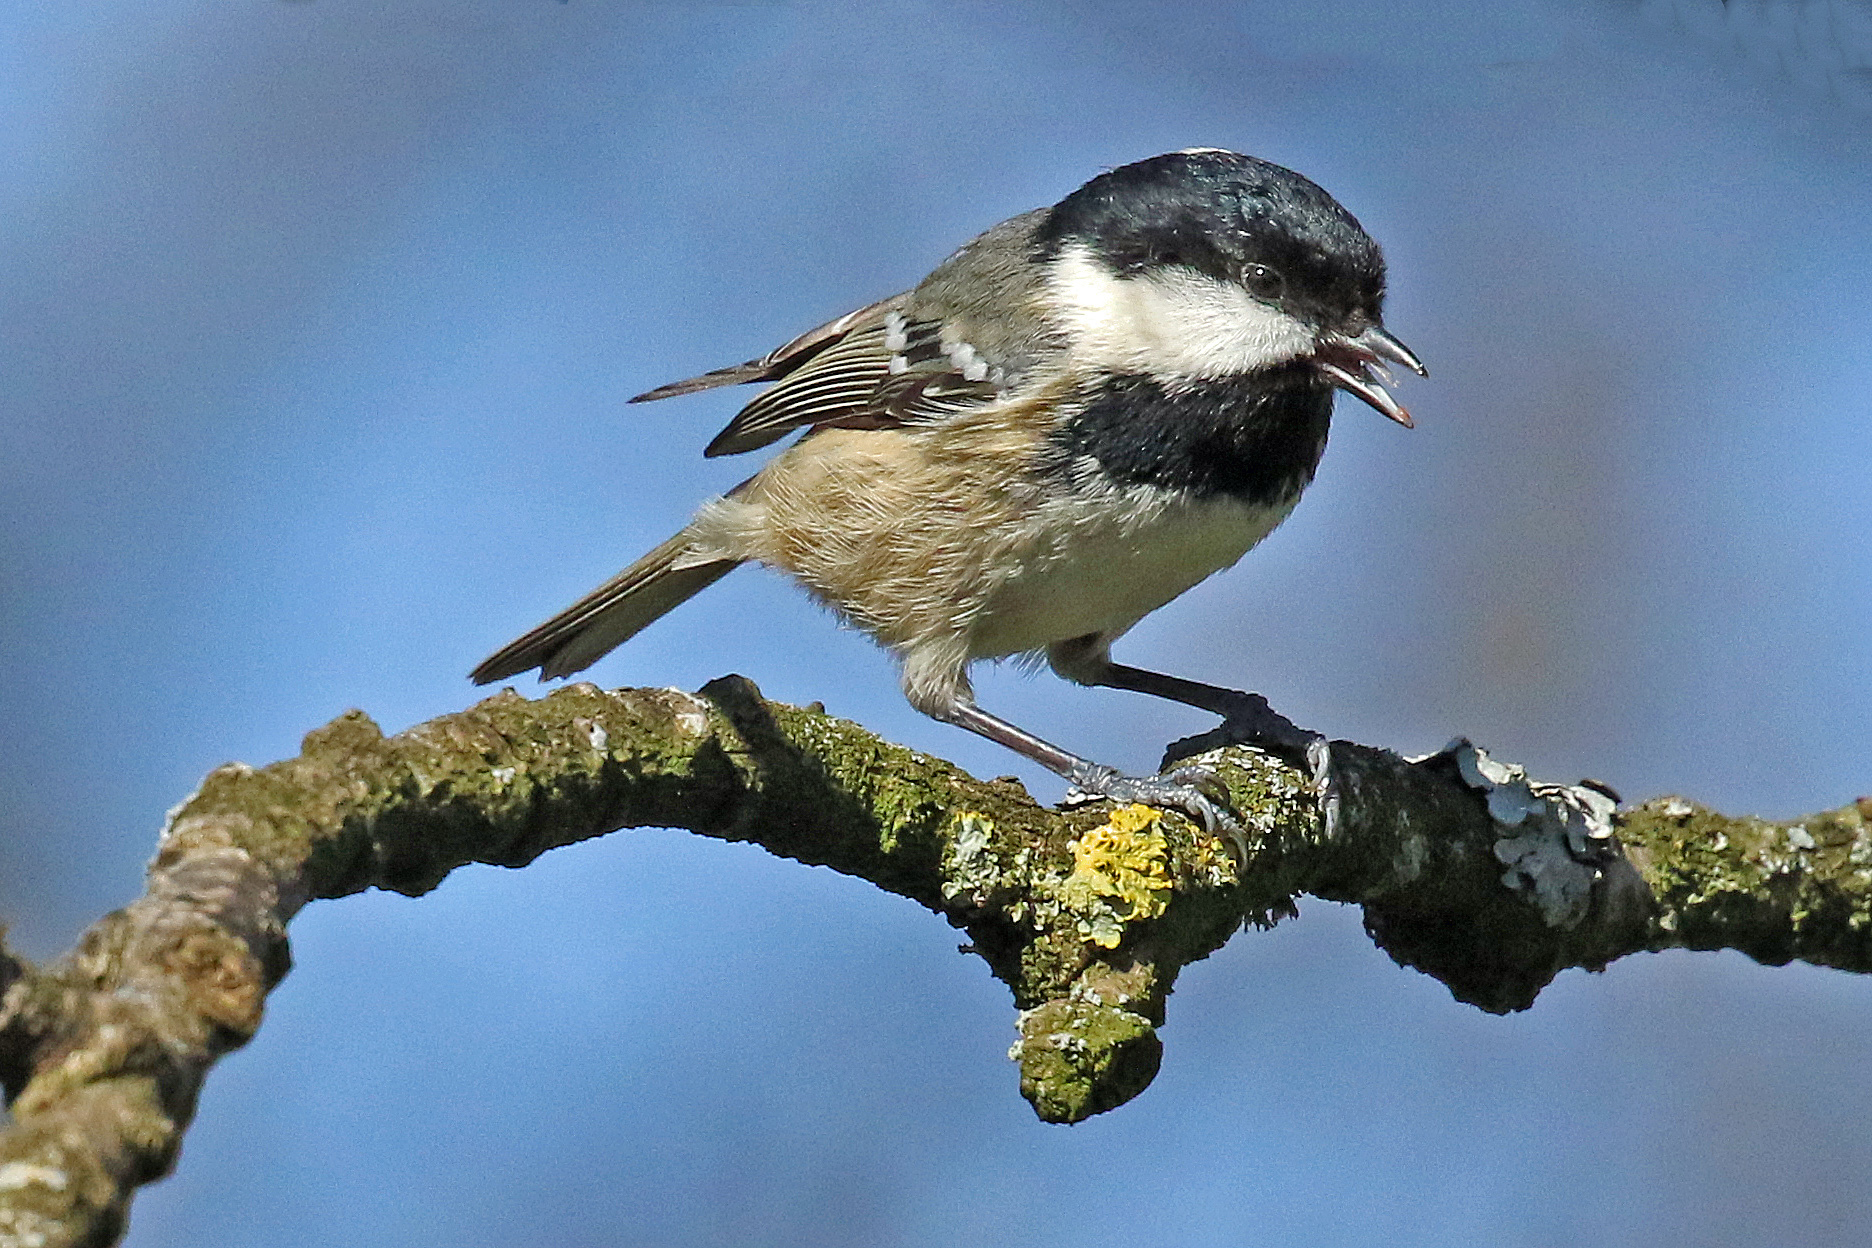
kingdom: Animalia
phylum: Chordata
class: Aves
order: Passeriformes
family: Paridae
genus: Periparus
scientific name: Periparus ater
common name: Coal tit
